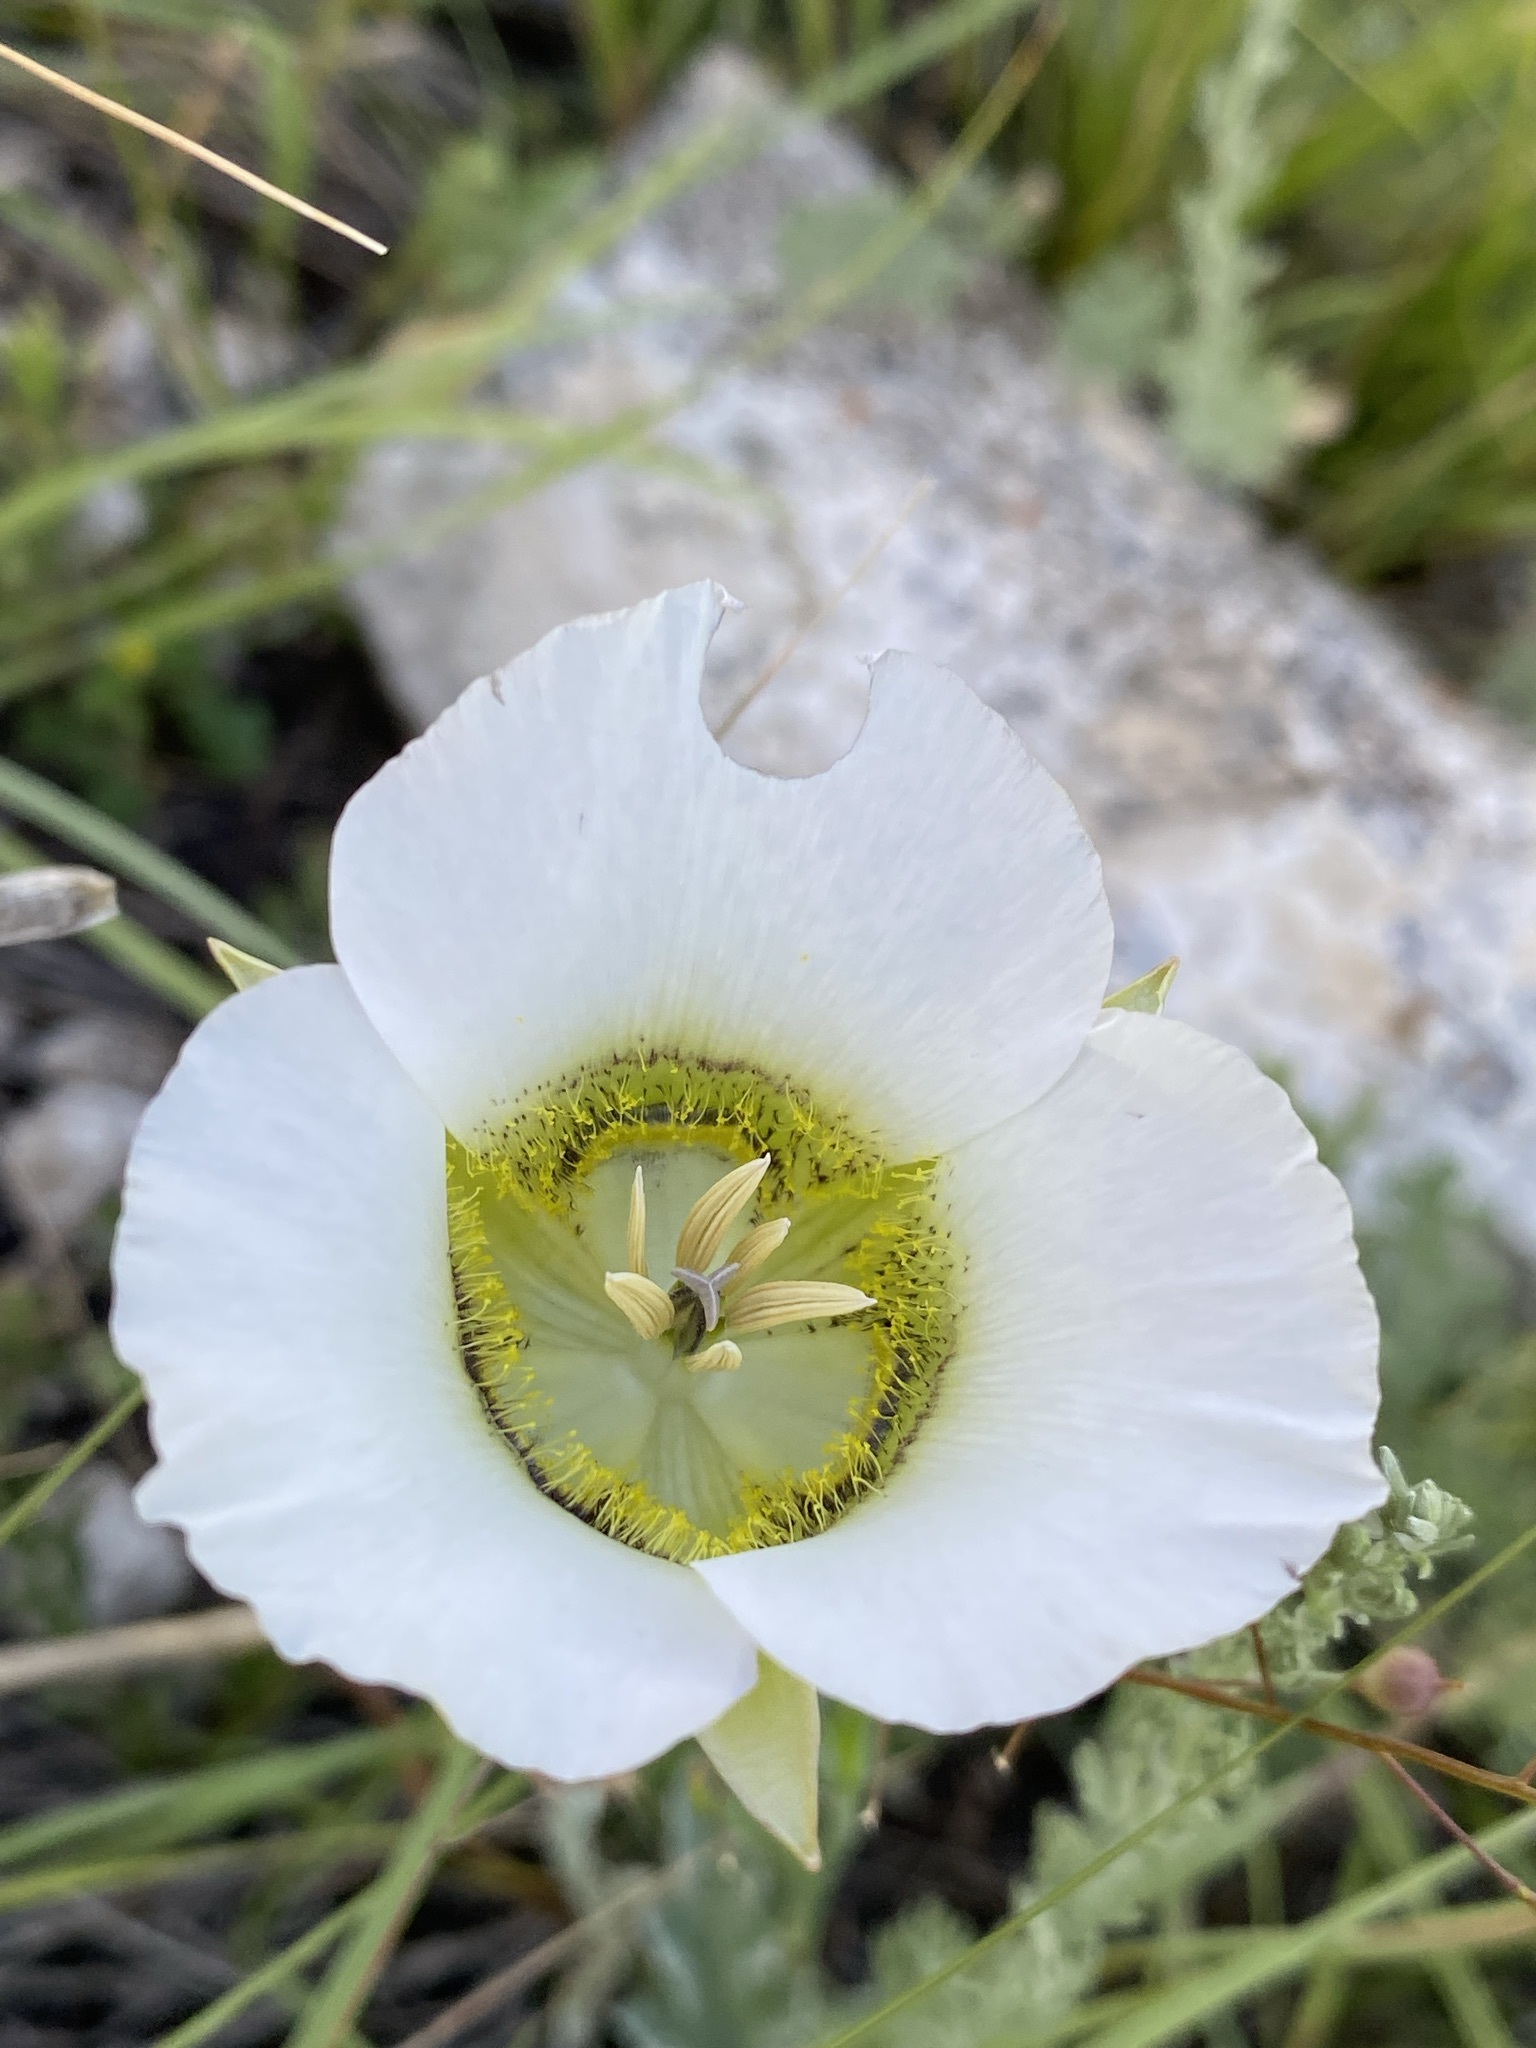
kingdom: Plantae
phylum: Tracheophyta
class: Liliopsida
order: Liliales
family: Liliaceae
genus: Calochortus
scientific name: Calochortus gunnisonii
